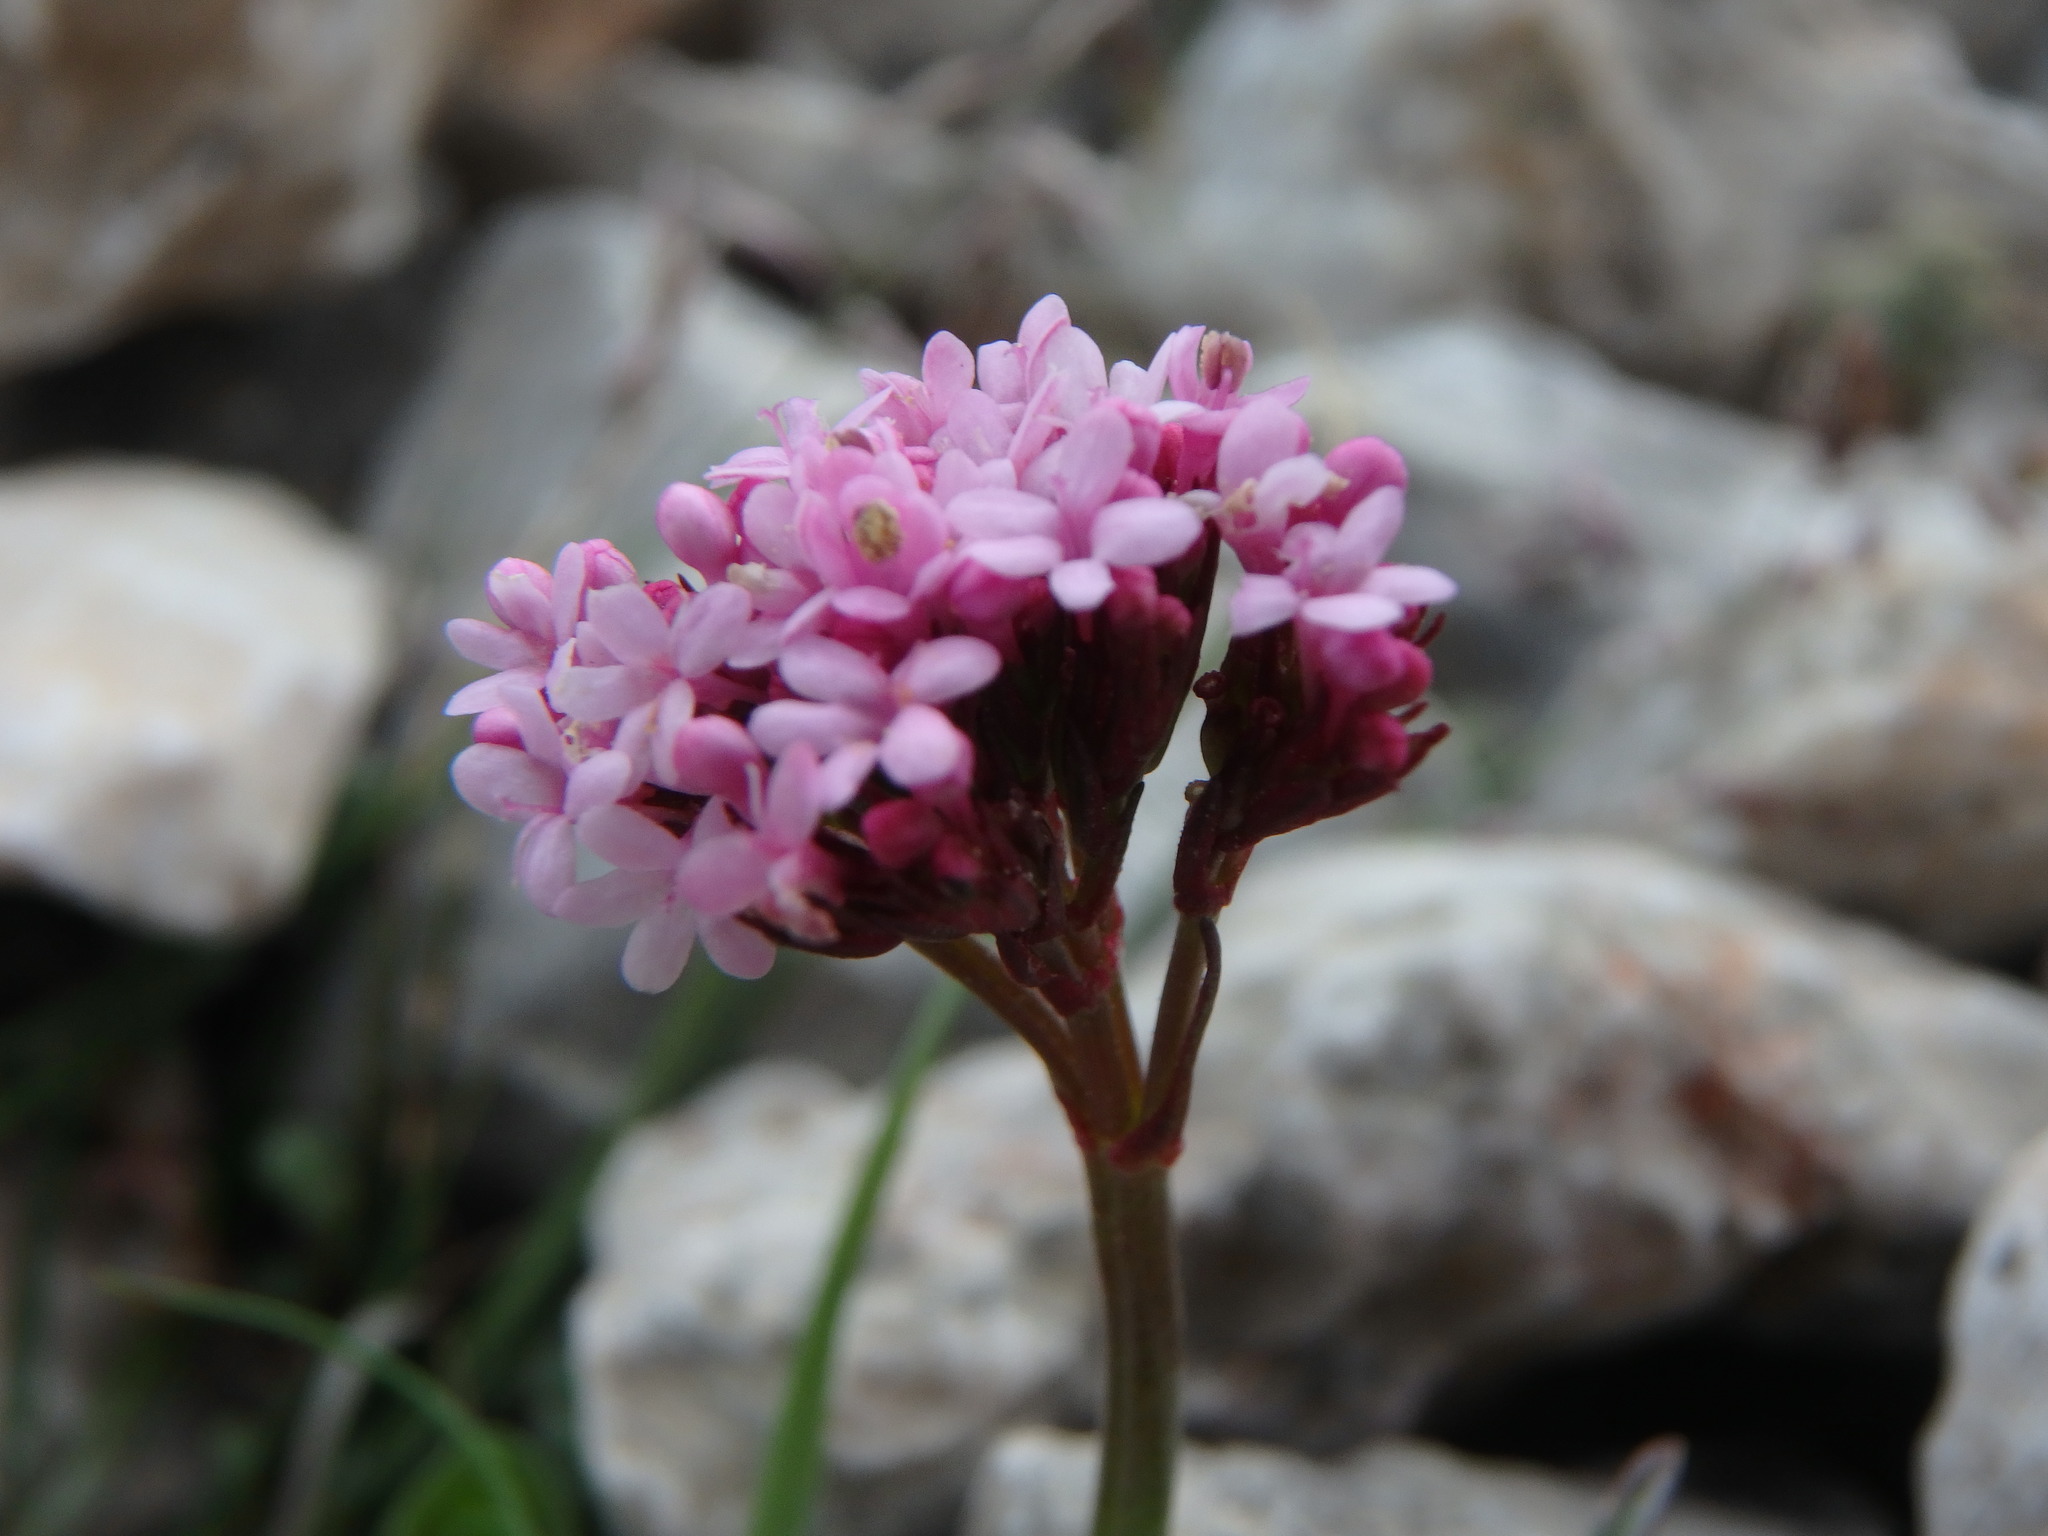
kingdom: Plantae
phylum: Tracheophyta
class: Magnoliopsida
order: Dipsacales
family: Caprifoliaceae
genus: Centranthus
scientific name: Centranthus calcitrapae
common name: Annual valerian
